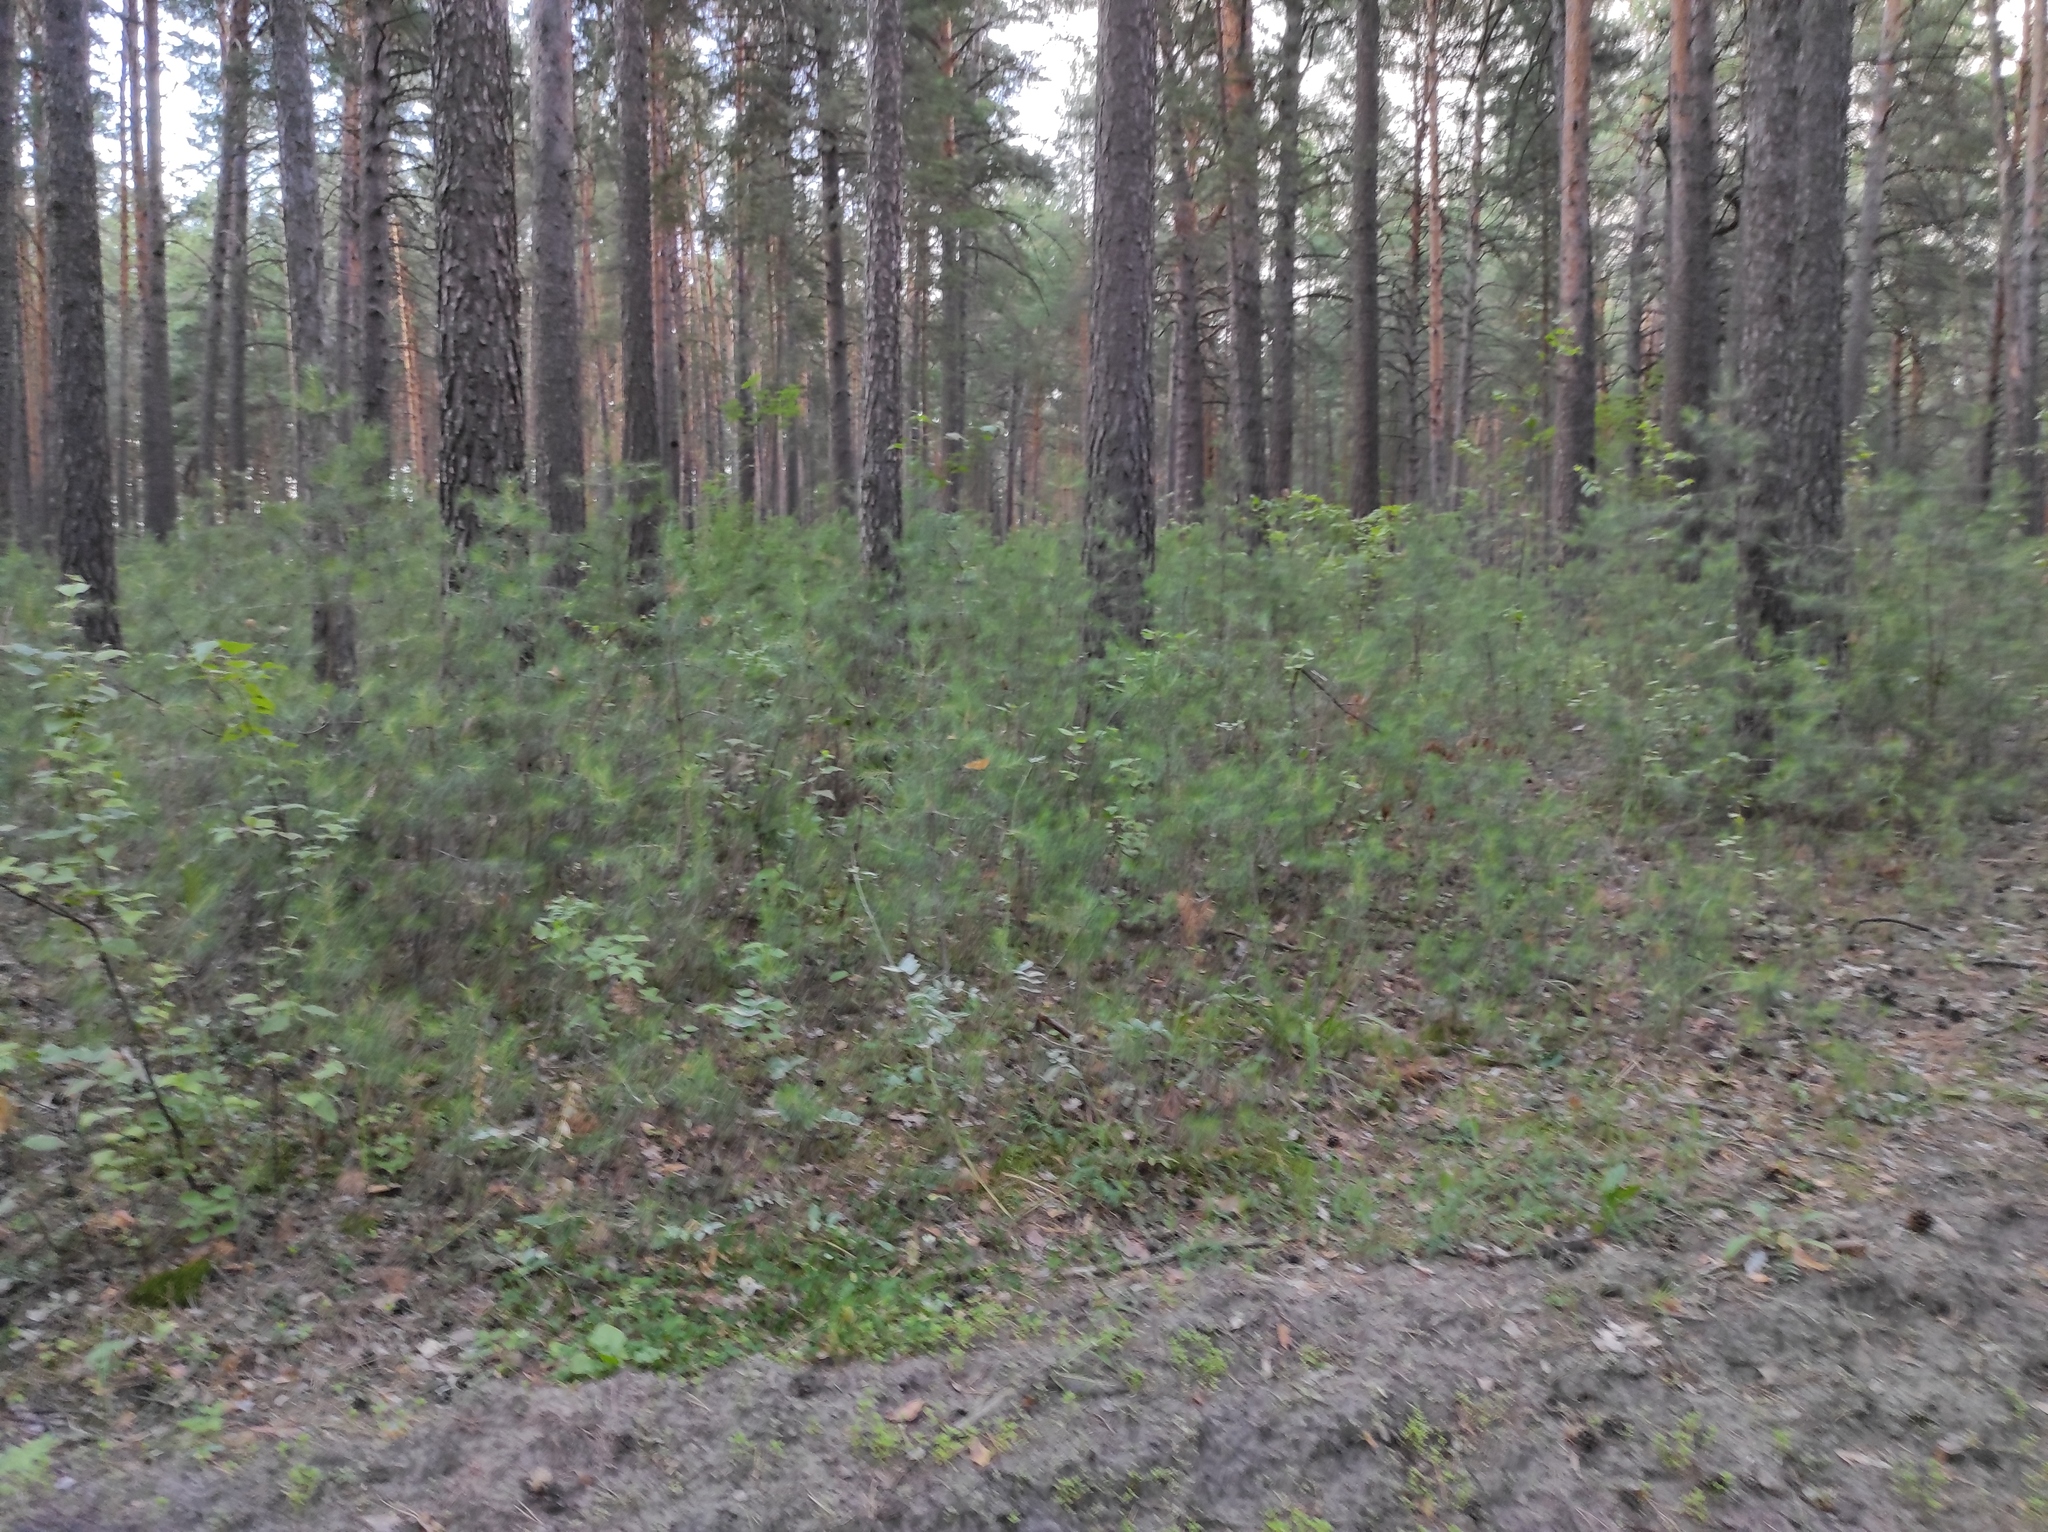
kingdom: Plantae
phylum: Tracheophyta
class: Pinopsida
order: Pinales
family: Pinaceae
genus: Pinus
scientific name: Pinus sylvestris
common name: Scots pine
